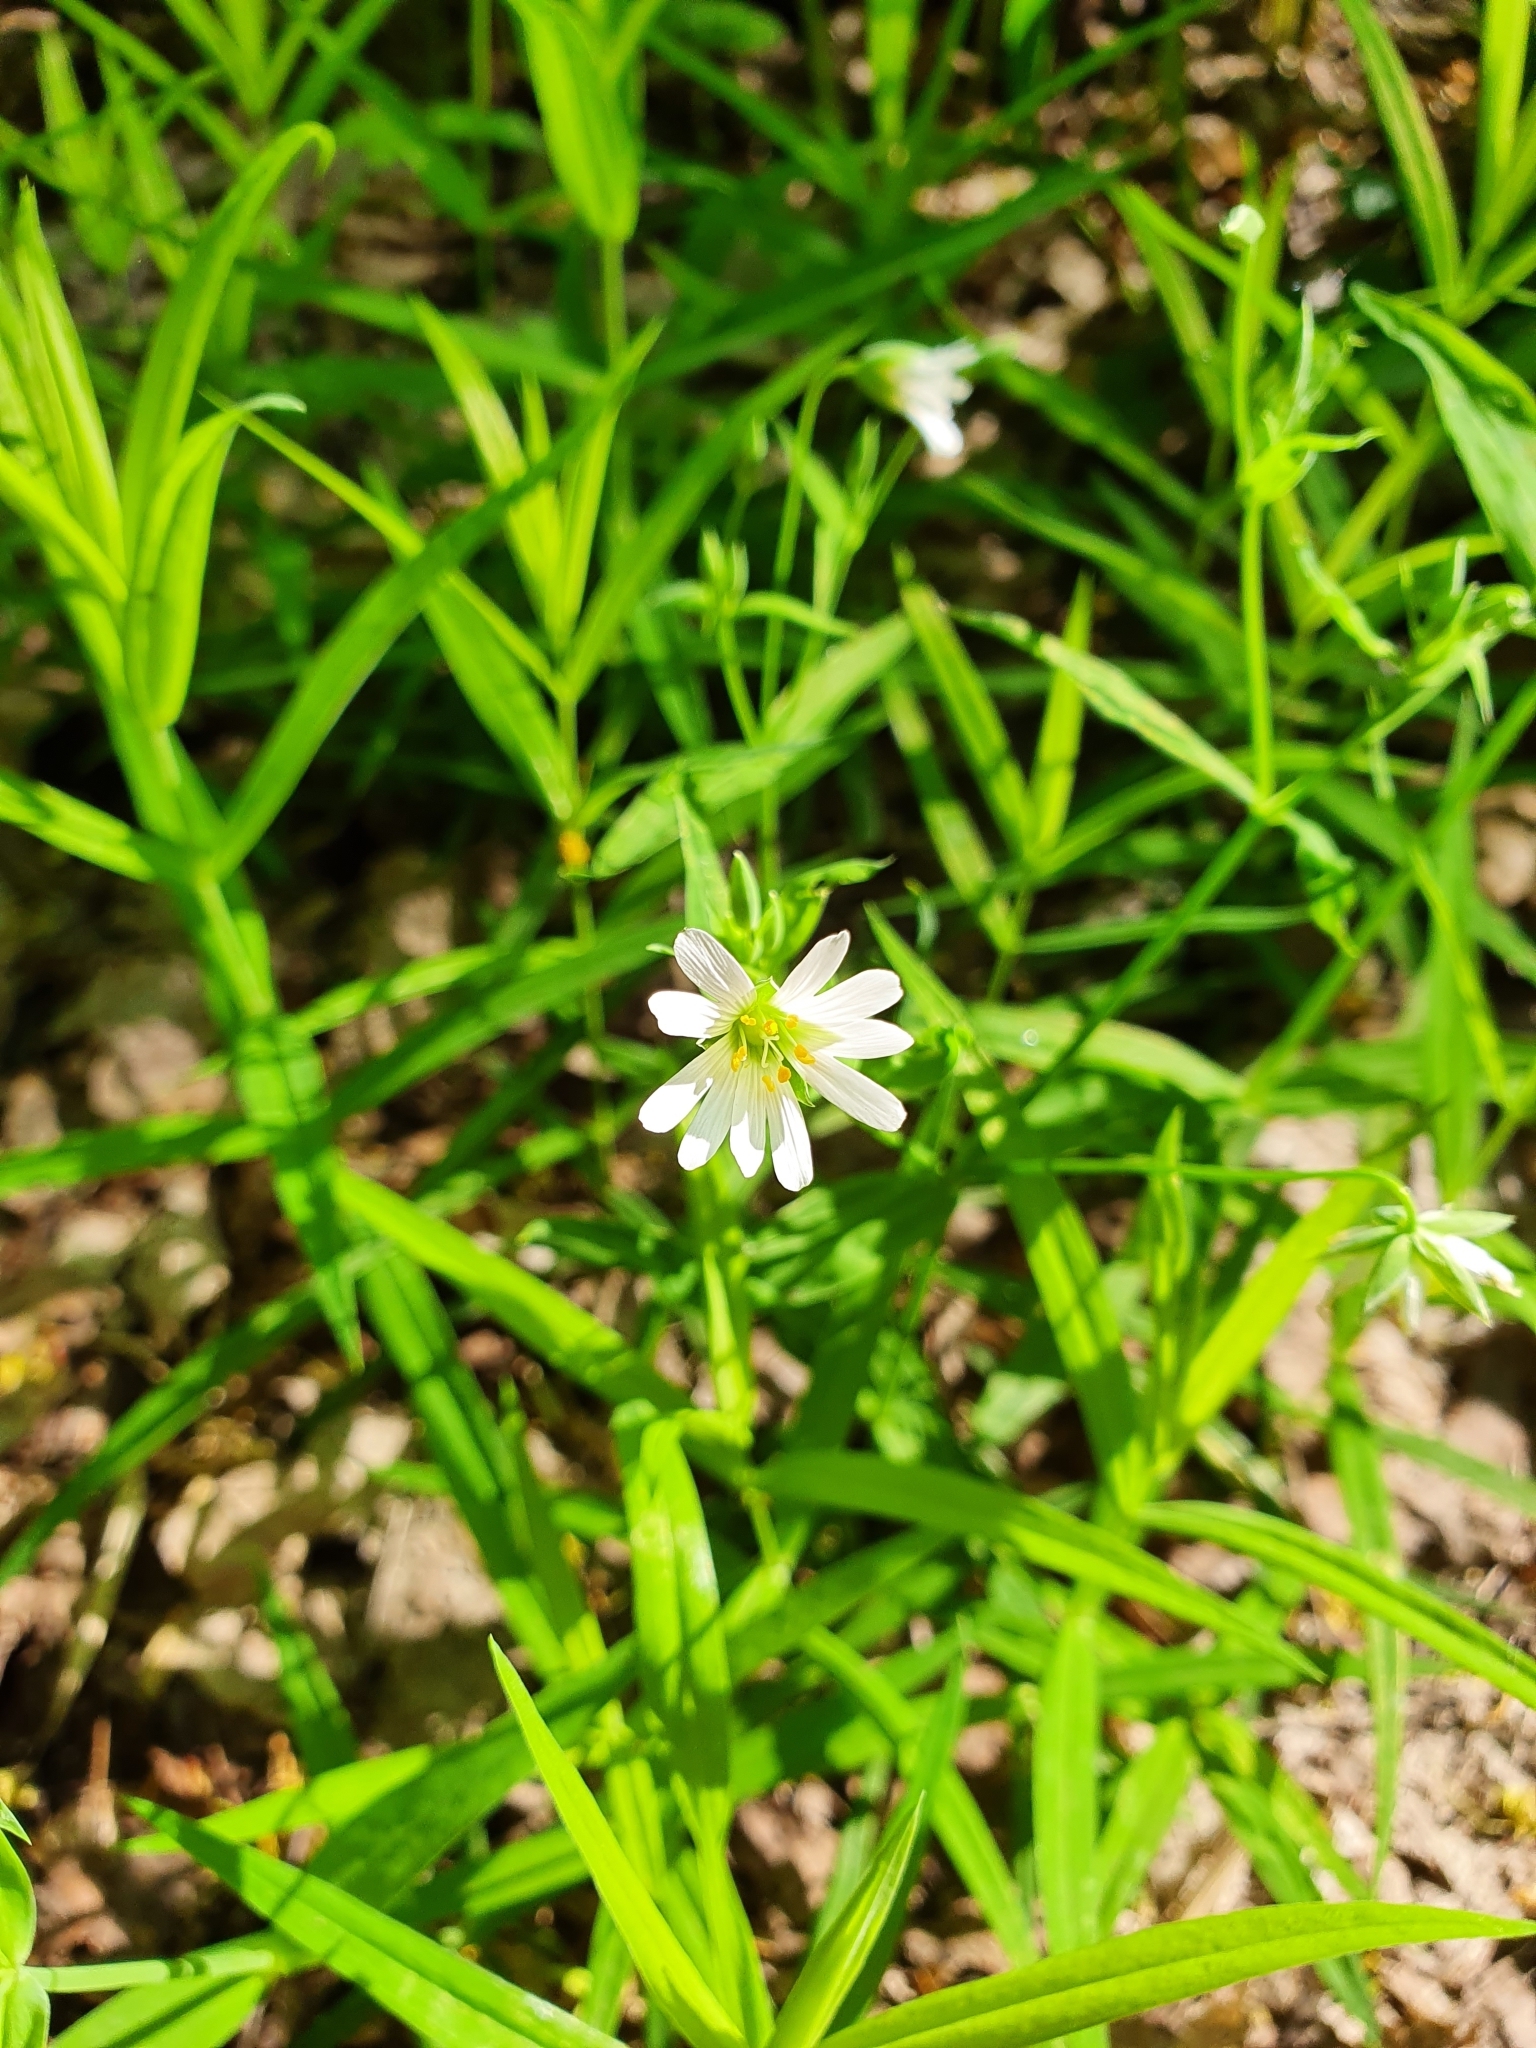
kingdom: Plantae
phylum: Tracheophyta
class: Magnoliopsida
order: Caryophyllales
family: Caryophyllaceae
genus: Rabelera
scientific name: Rabelera holostea
